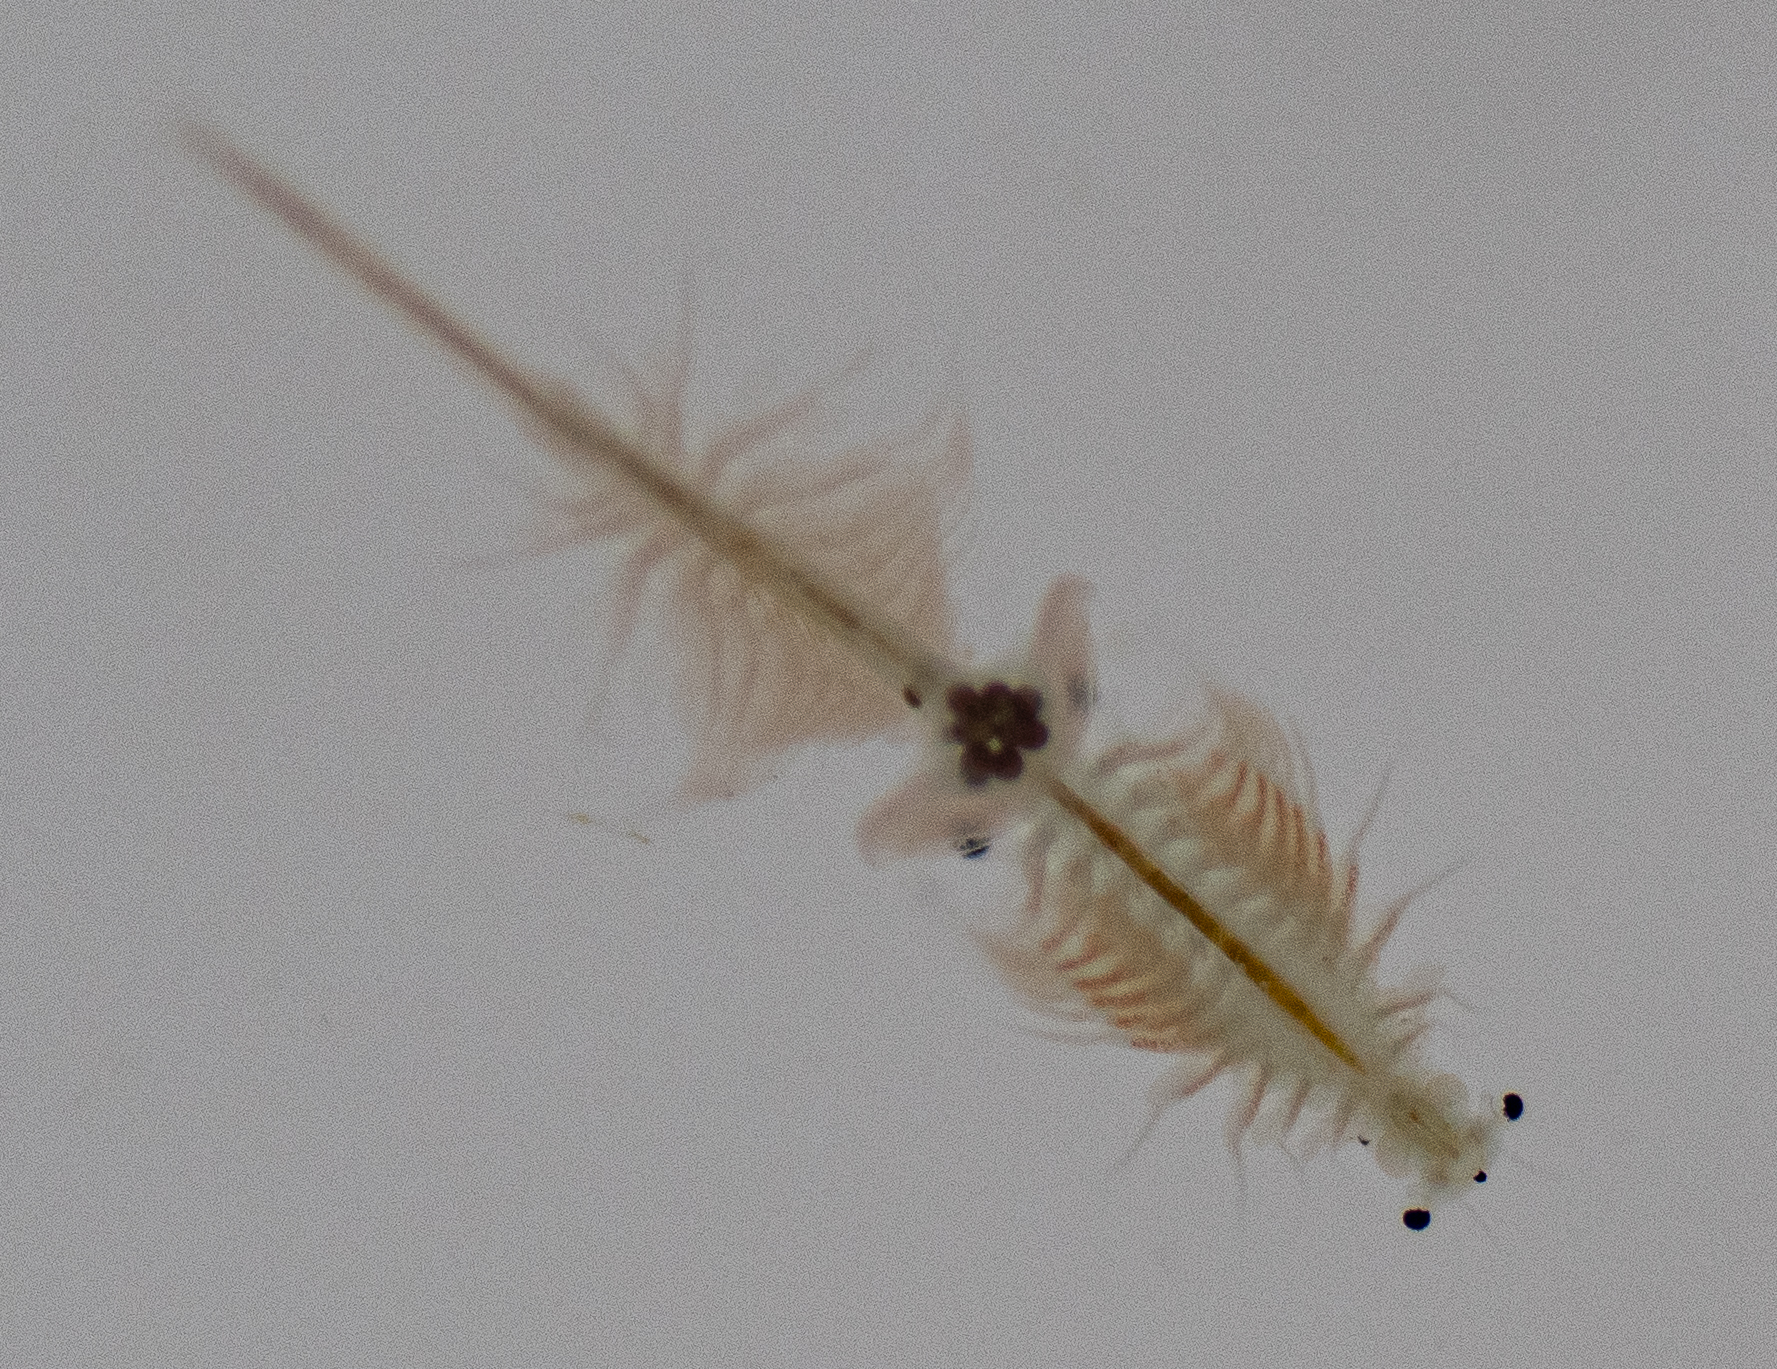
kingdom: Animalia
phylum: Arthropoda
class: Branchiopoda
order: Anostraca
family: Artemiidae
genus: Artemia
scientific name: Artemia monica
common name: Mono lake brine shrimp
